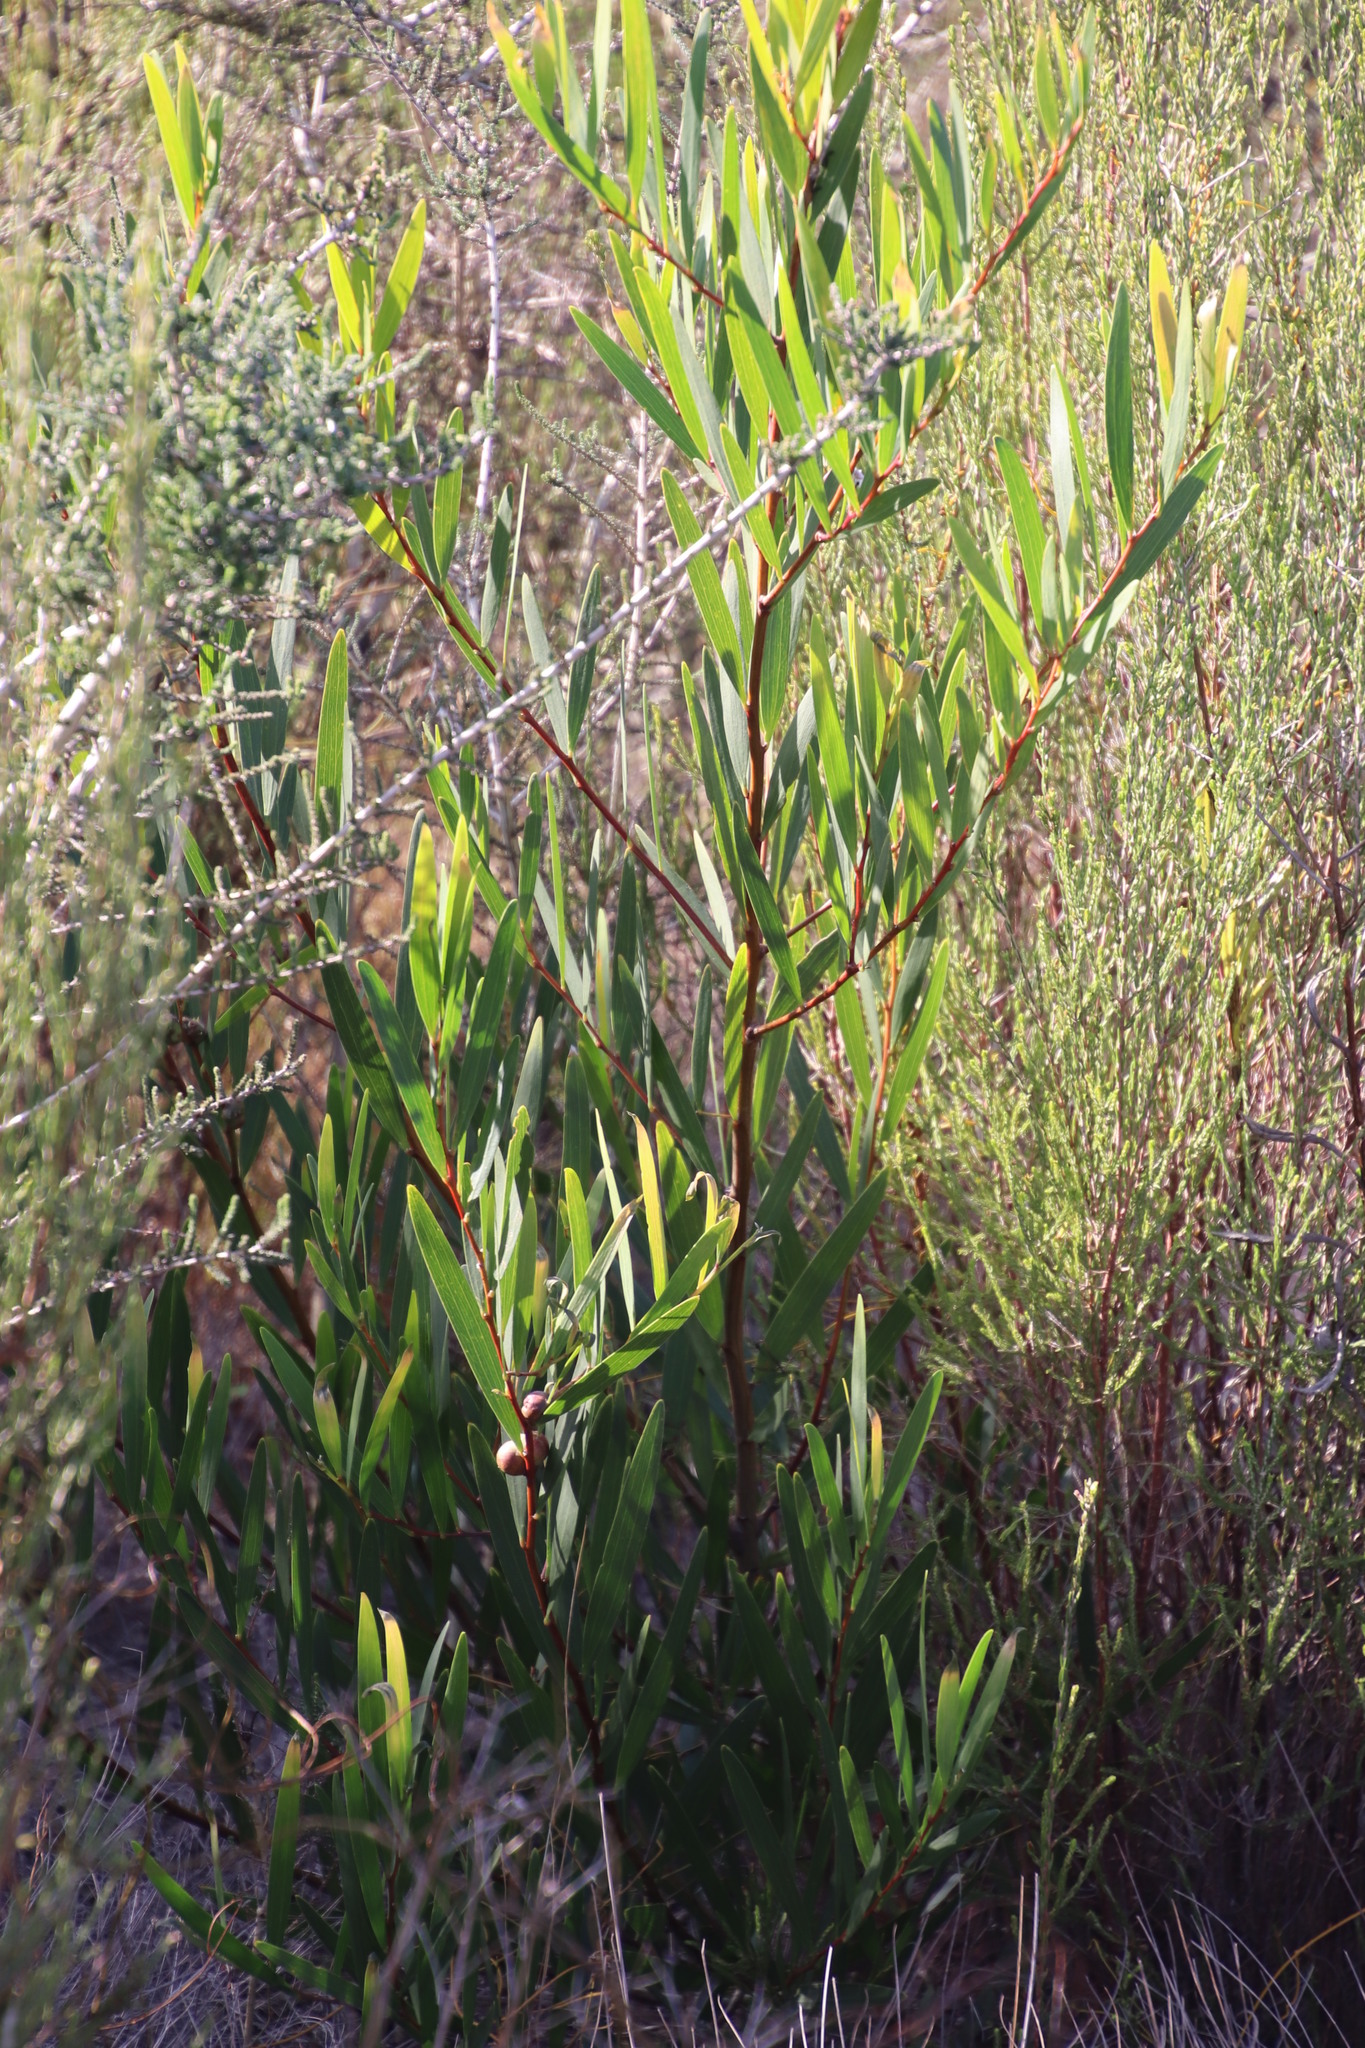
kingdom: Plantae
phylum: Tracheophyta
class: Magnoliopsida
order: Fabales
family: Fabaceae
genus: Acacia
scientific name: Acacia longifolia
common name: Sydney golden wattle
